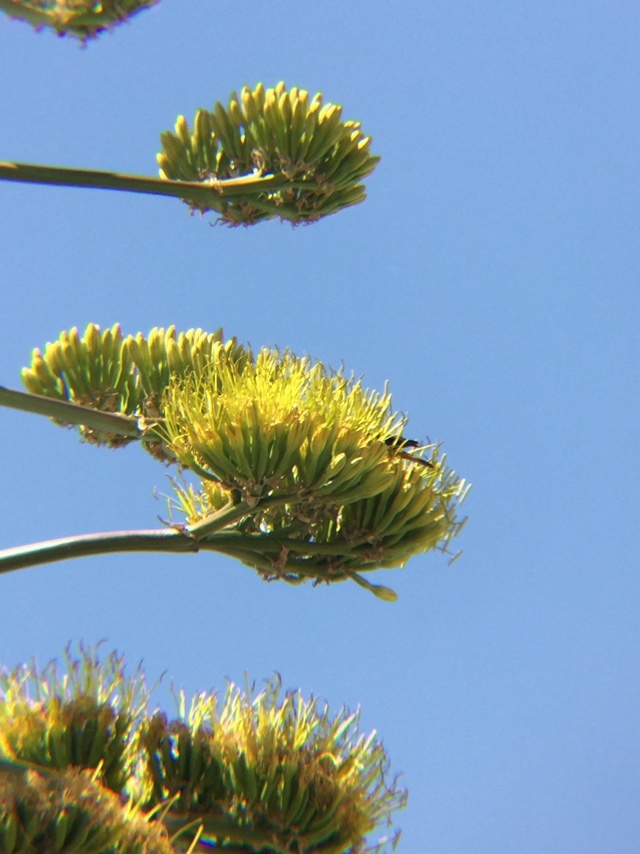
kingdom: Animalia
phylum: Chordata
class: Aves
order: Passeriformes
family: Icteridae
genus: Icterus
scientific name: Icterus abeillei
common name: Black-backed oriole
